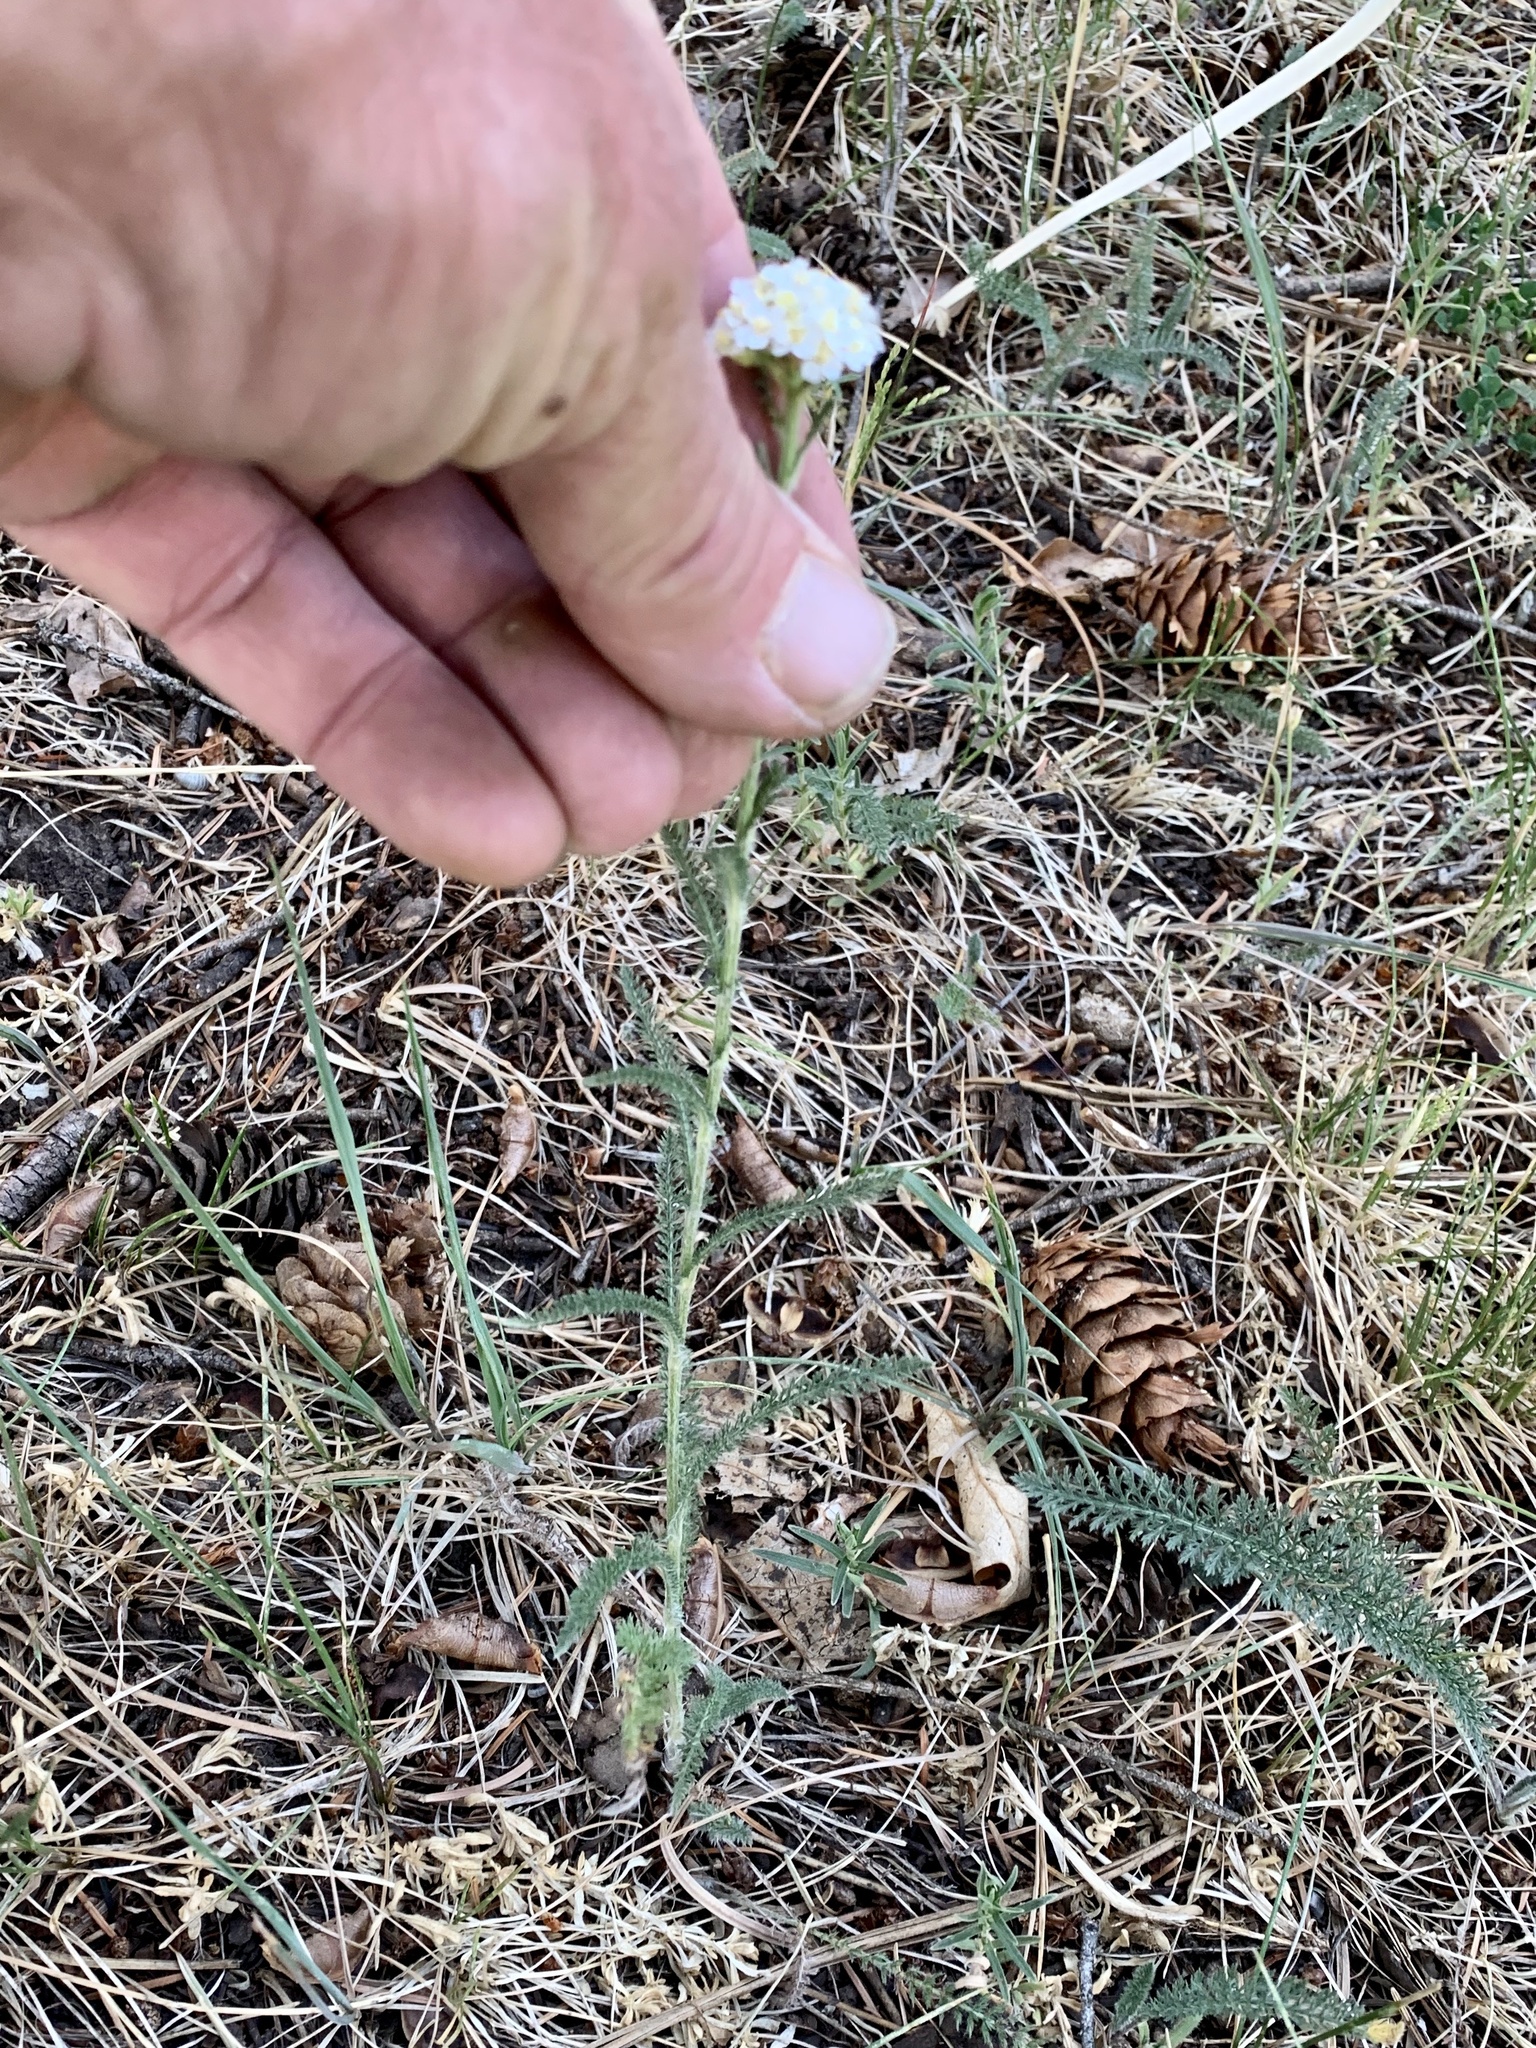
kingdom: Plantae
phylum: Tracheophyta
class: Magnoliopsida
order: Asterales
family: Asteraceae
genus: Achillea
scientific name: Achillea millefolium
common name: Yarrow
